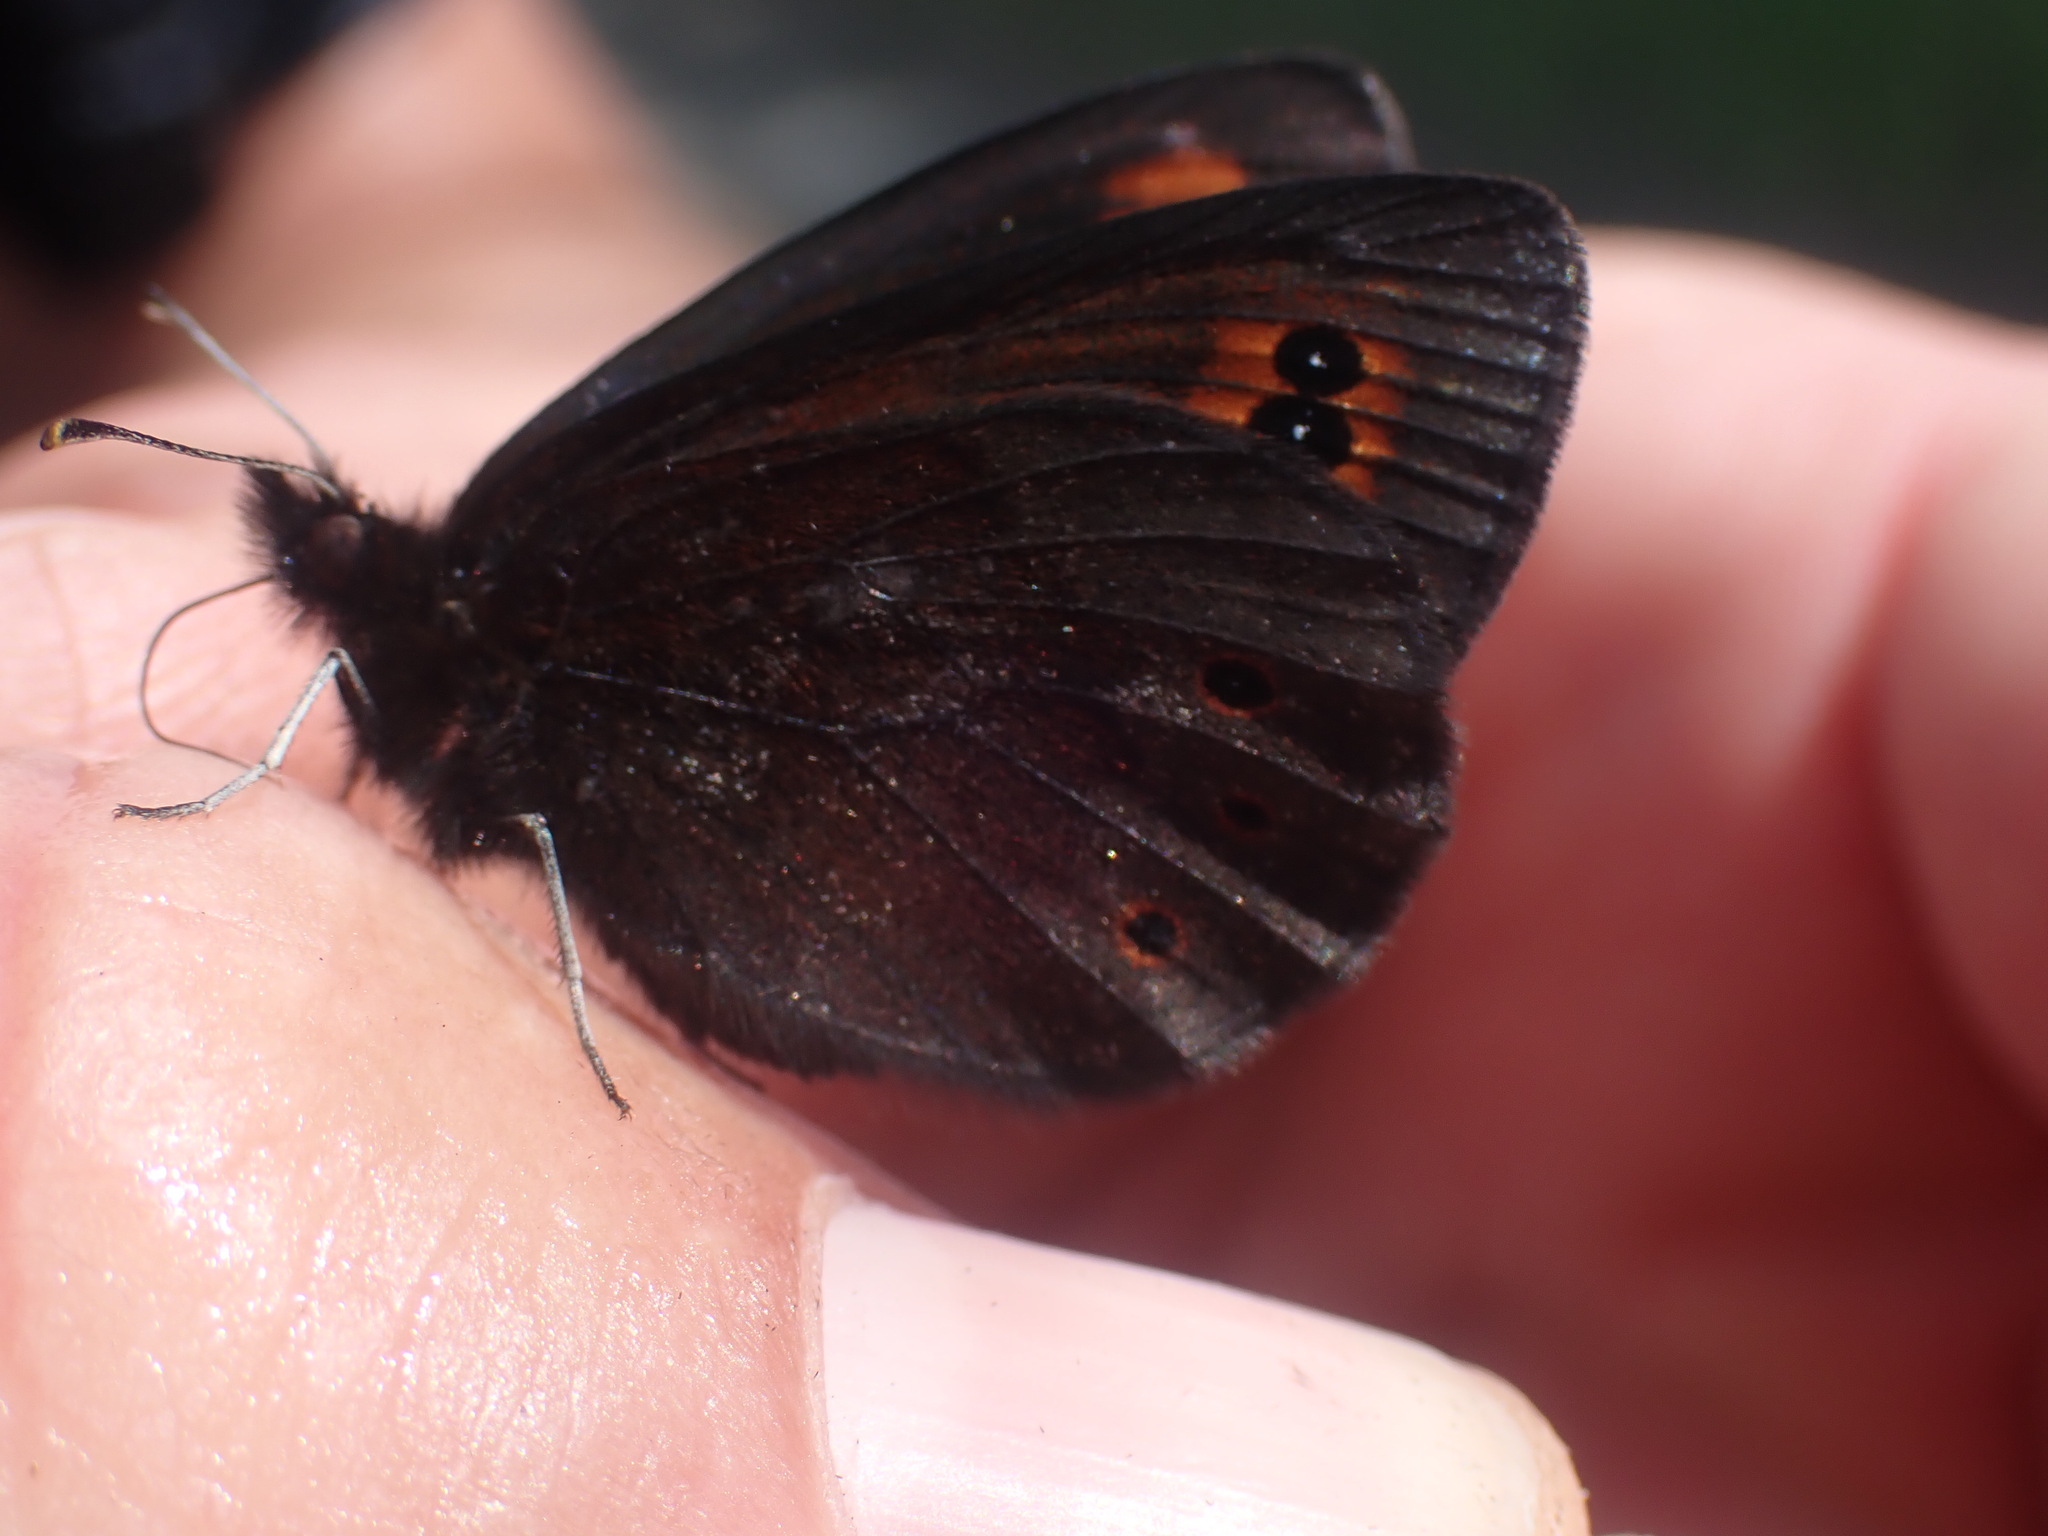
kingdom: Animalia
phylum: Arthropoda
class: Insecta
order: Lepidoptera
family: Nymphalidae
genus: Erebia
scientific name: Erebia epipsodea
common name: Common alpine
